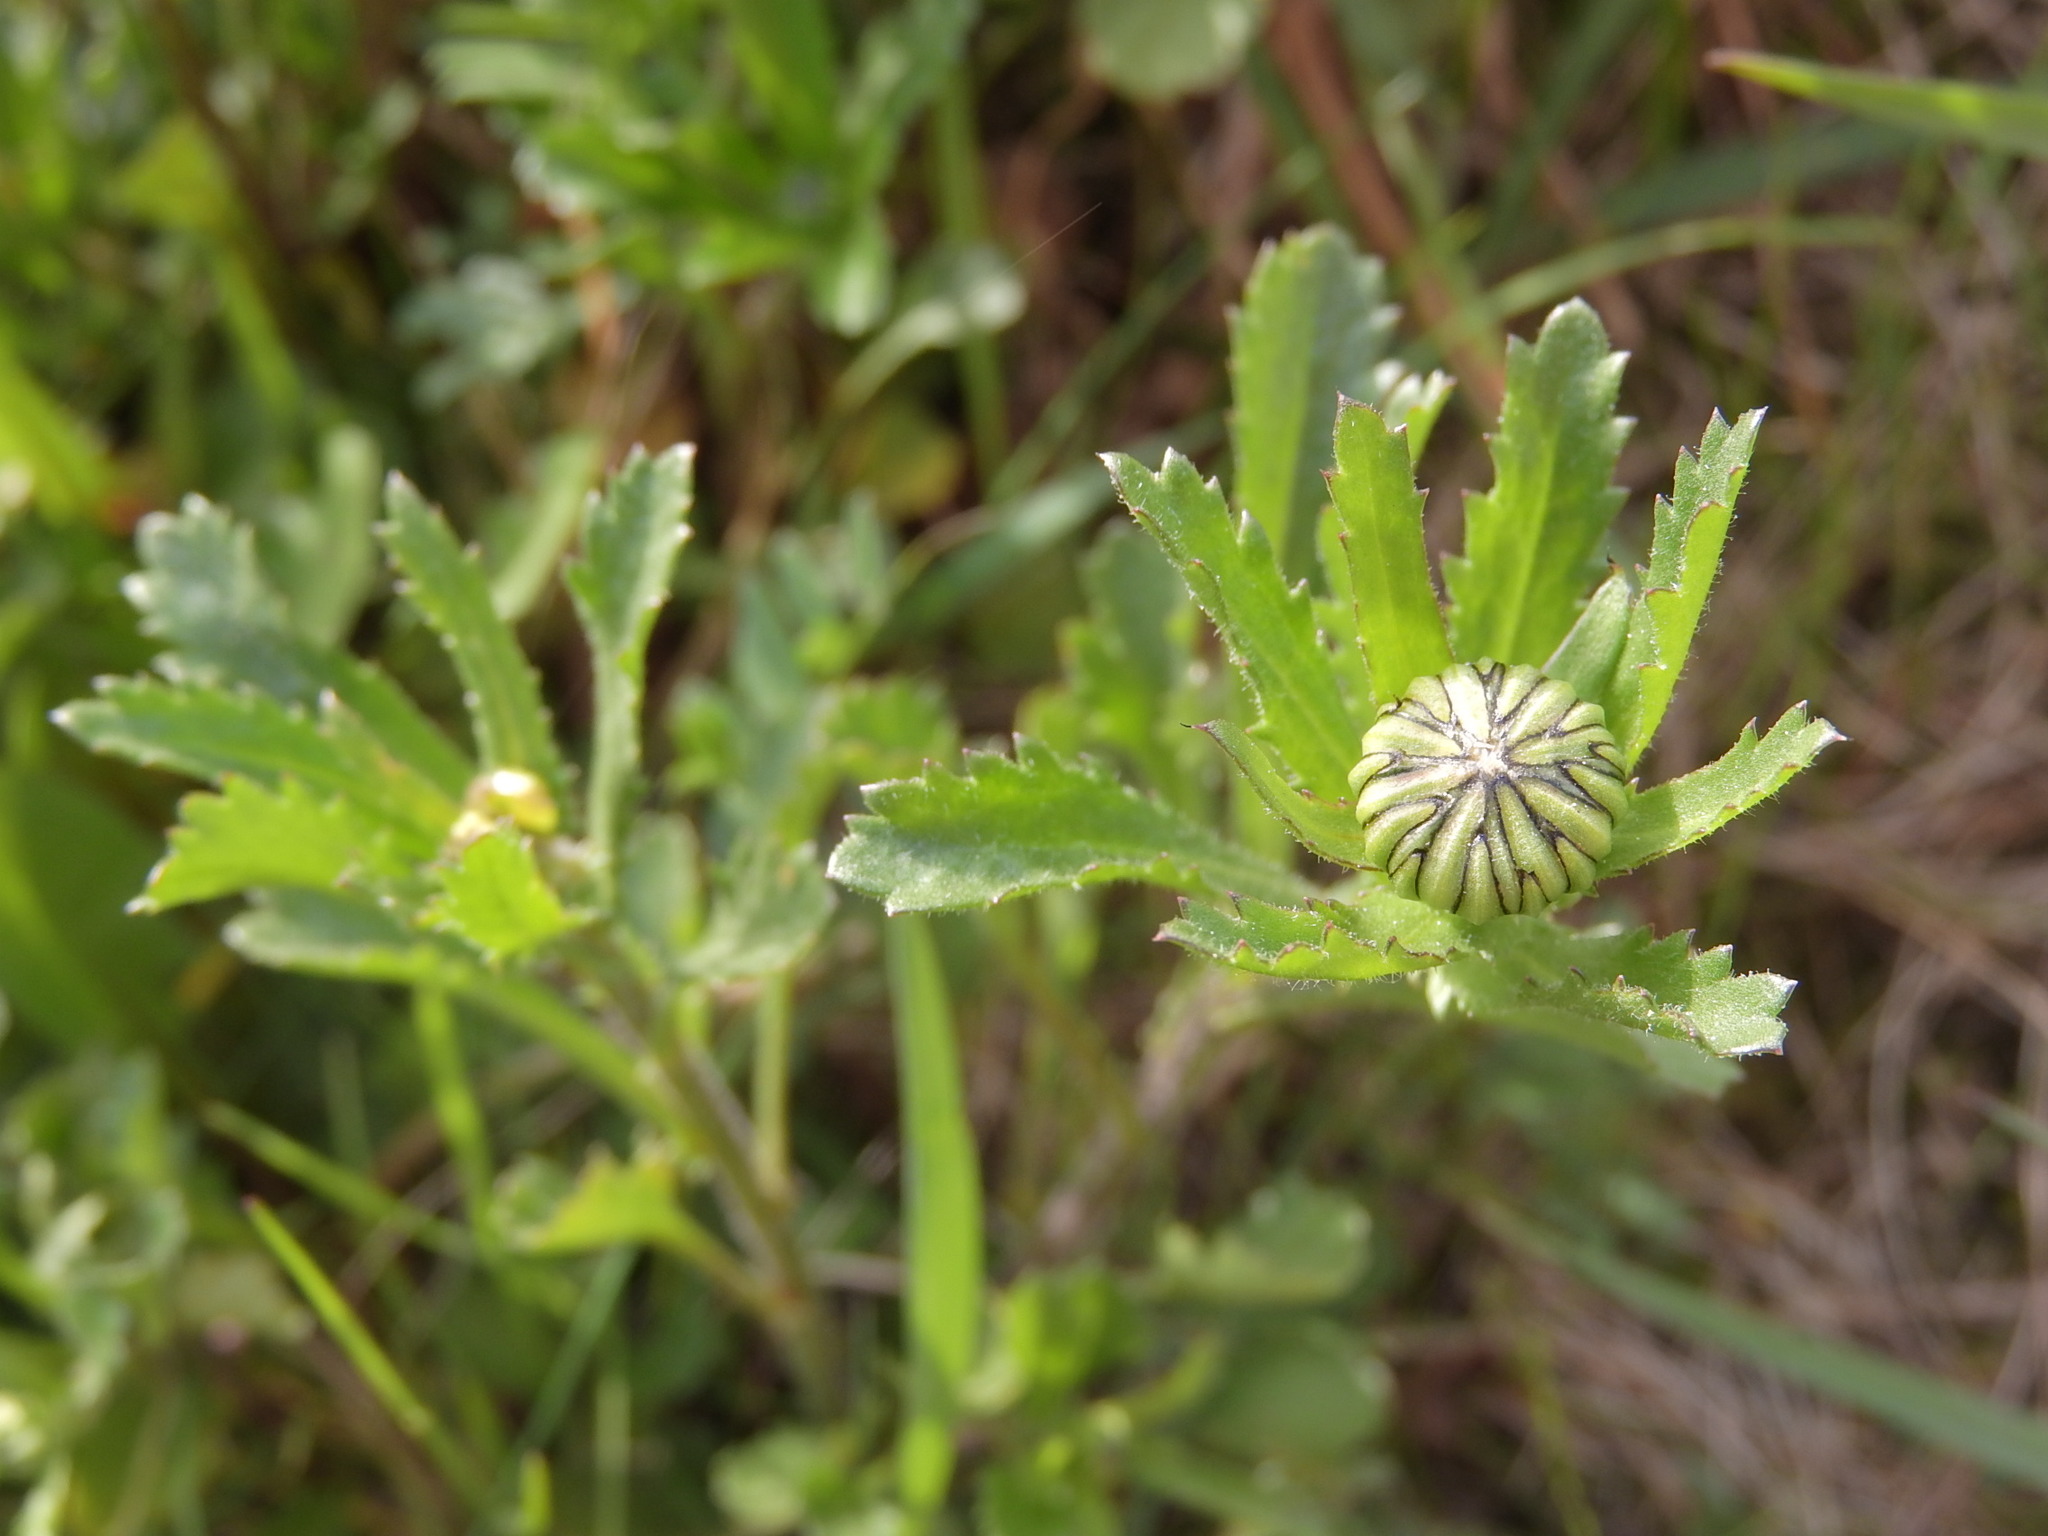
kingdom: Plantae
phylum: Tracheophyta
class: Magnoliopsida
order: Asterales
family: Asteraceae
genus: Leucanthemum
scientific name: Leucanthemum vulgare
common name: Oxeye daisy
